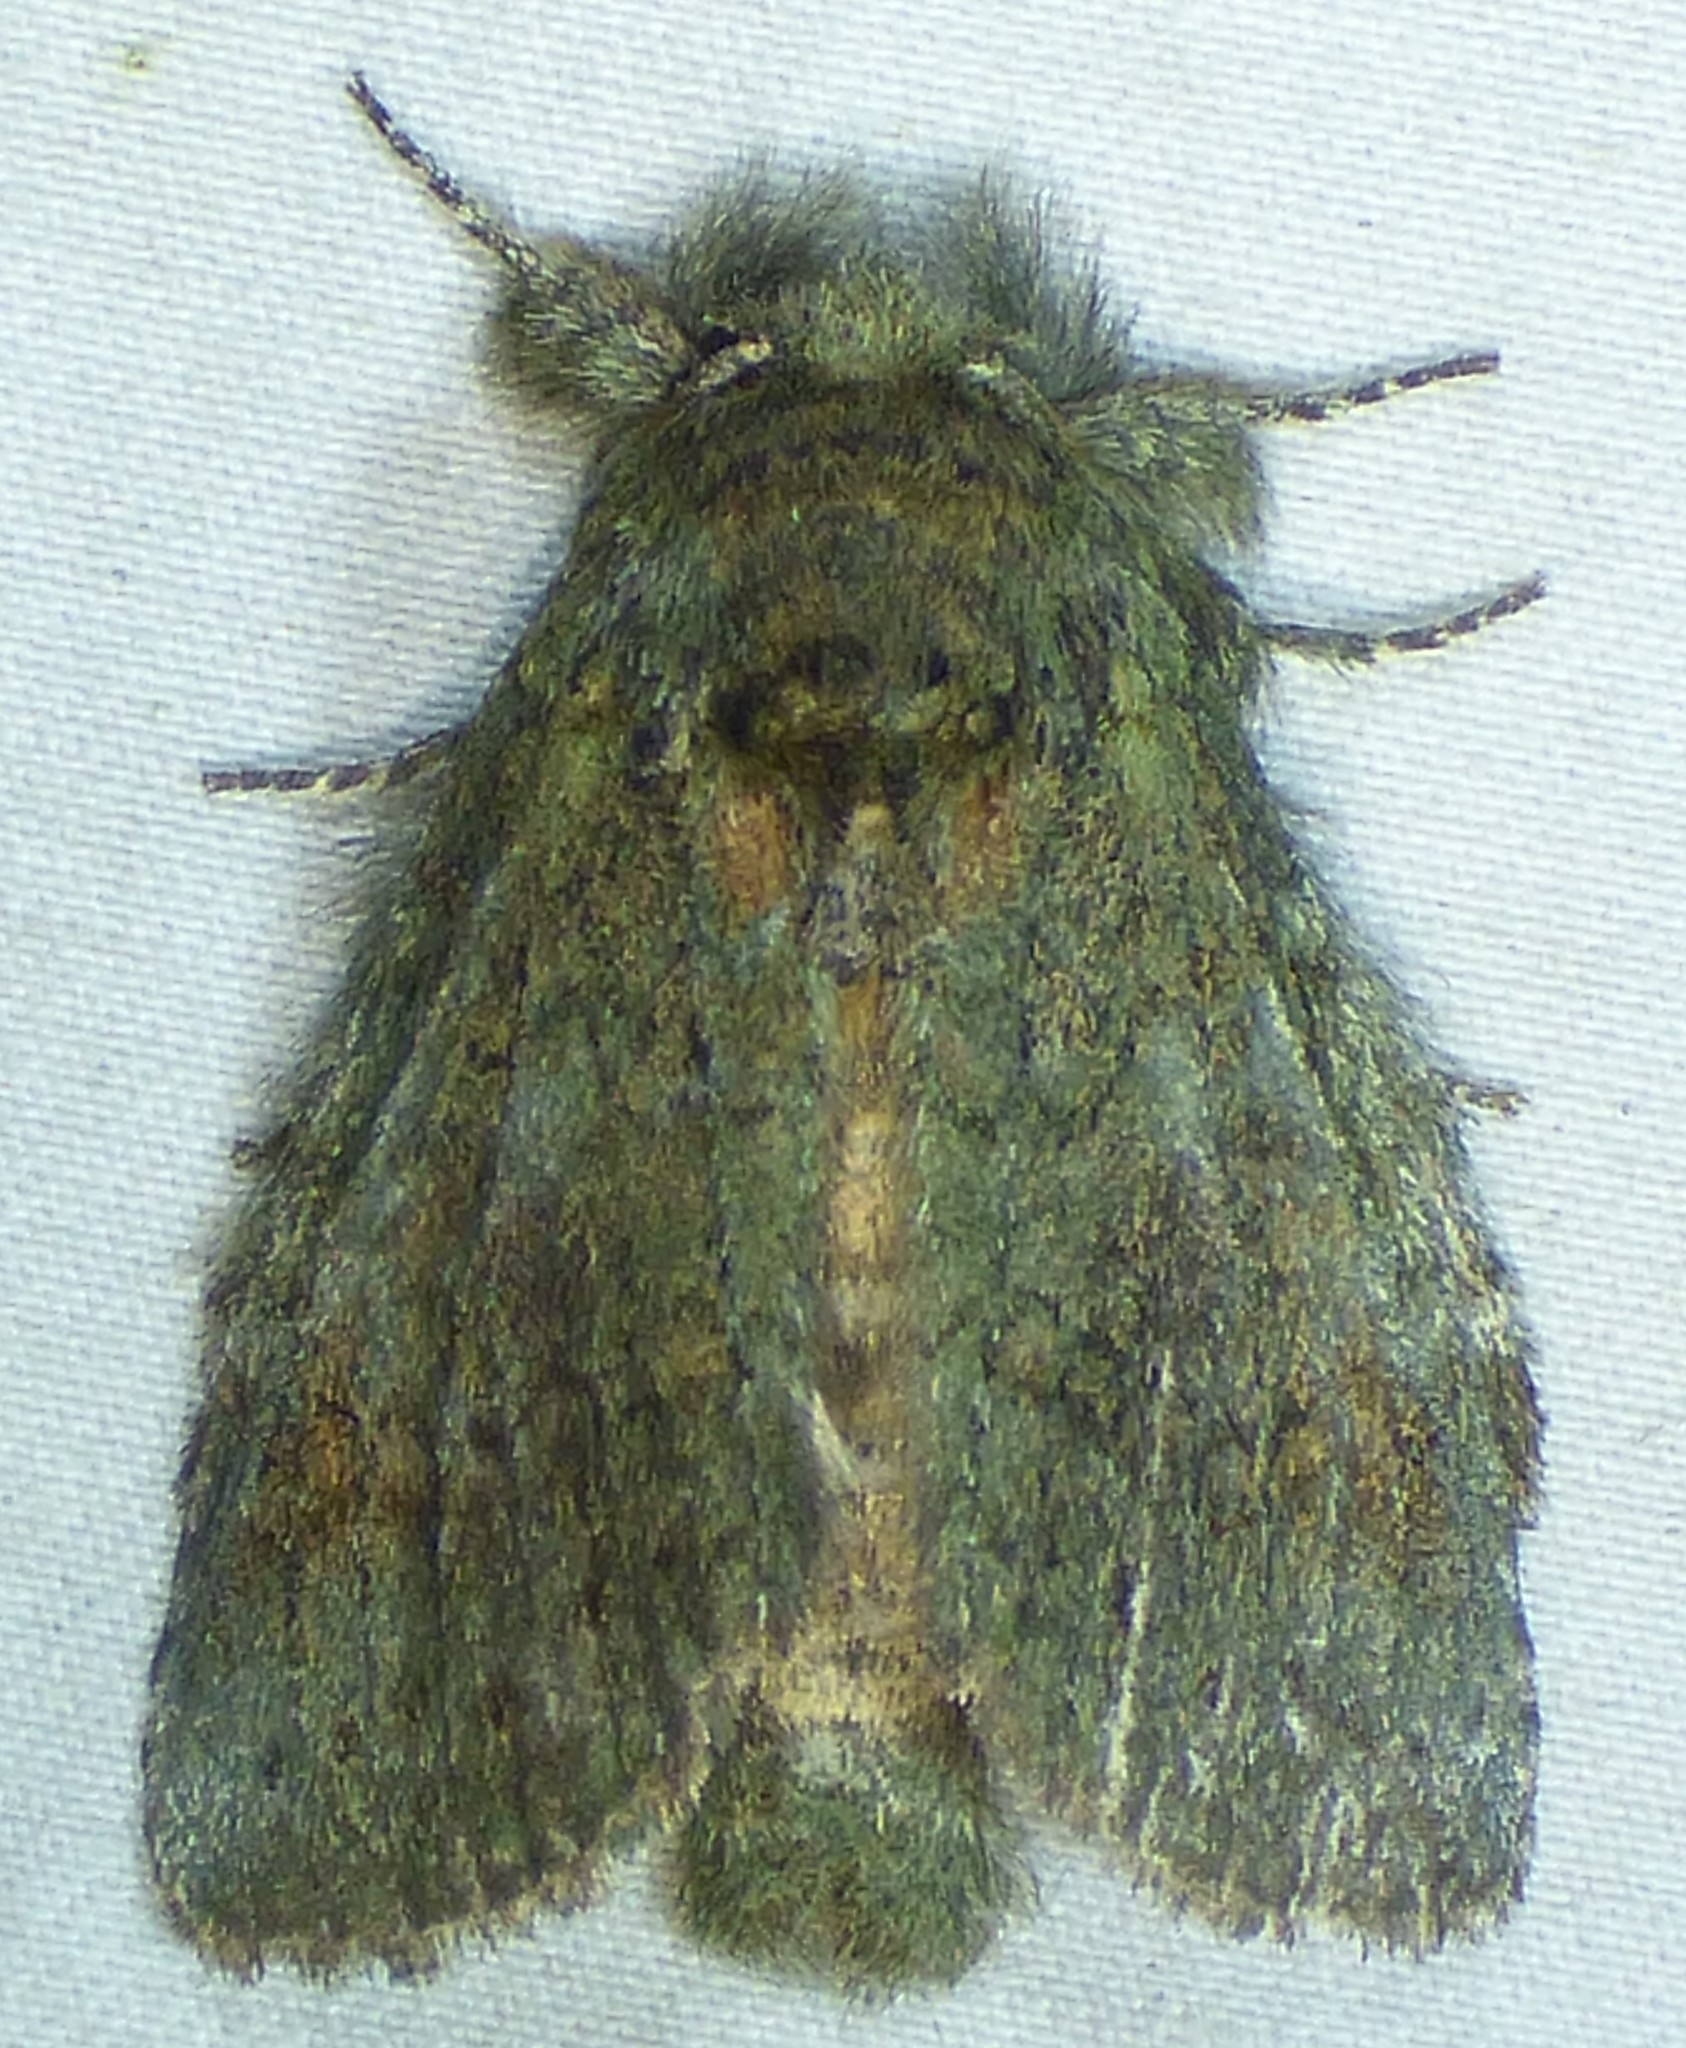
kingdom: Animalia
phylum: Arthropoda
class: Insecta
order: Lepidoptera
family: Notodontidae
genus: Disphragis
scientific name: Disphragis Cecrita guttivitta
